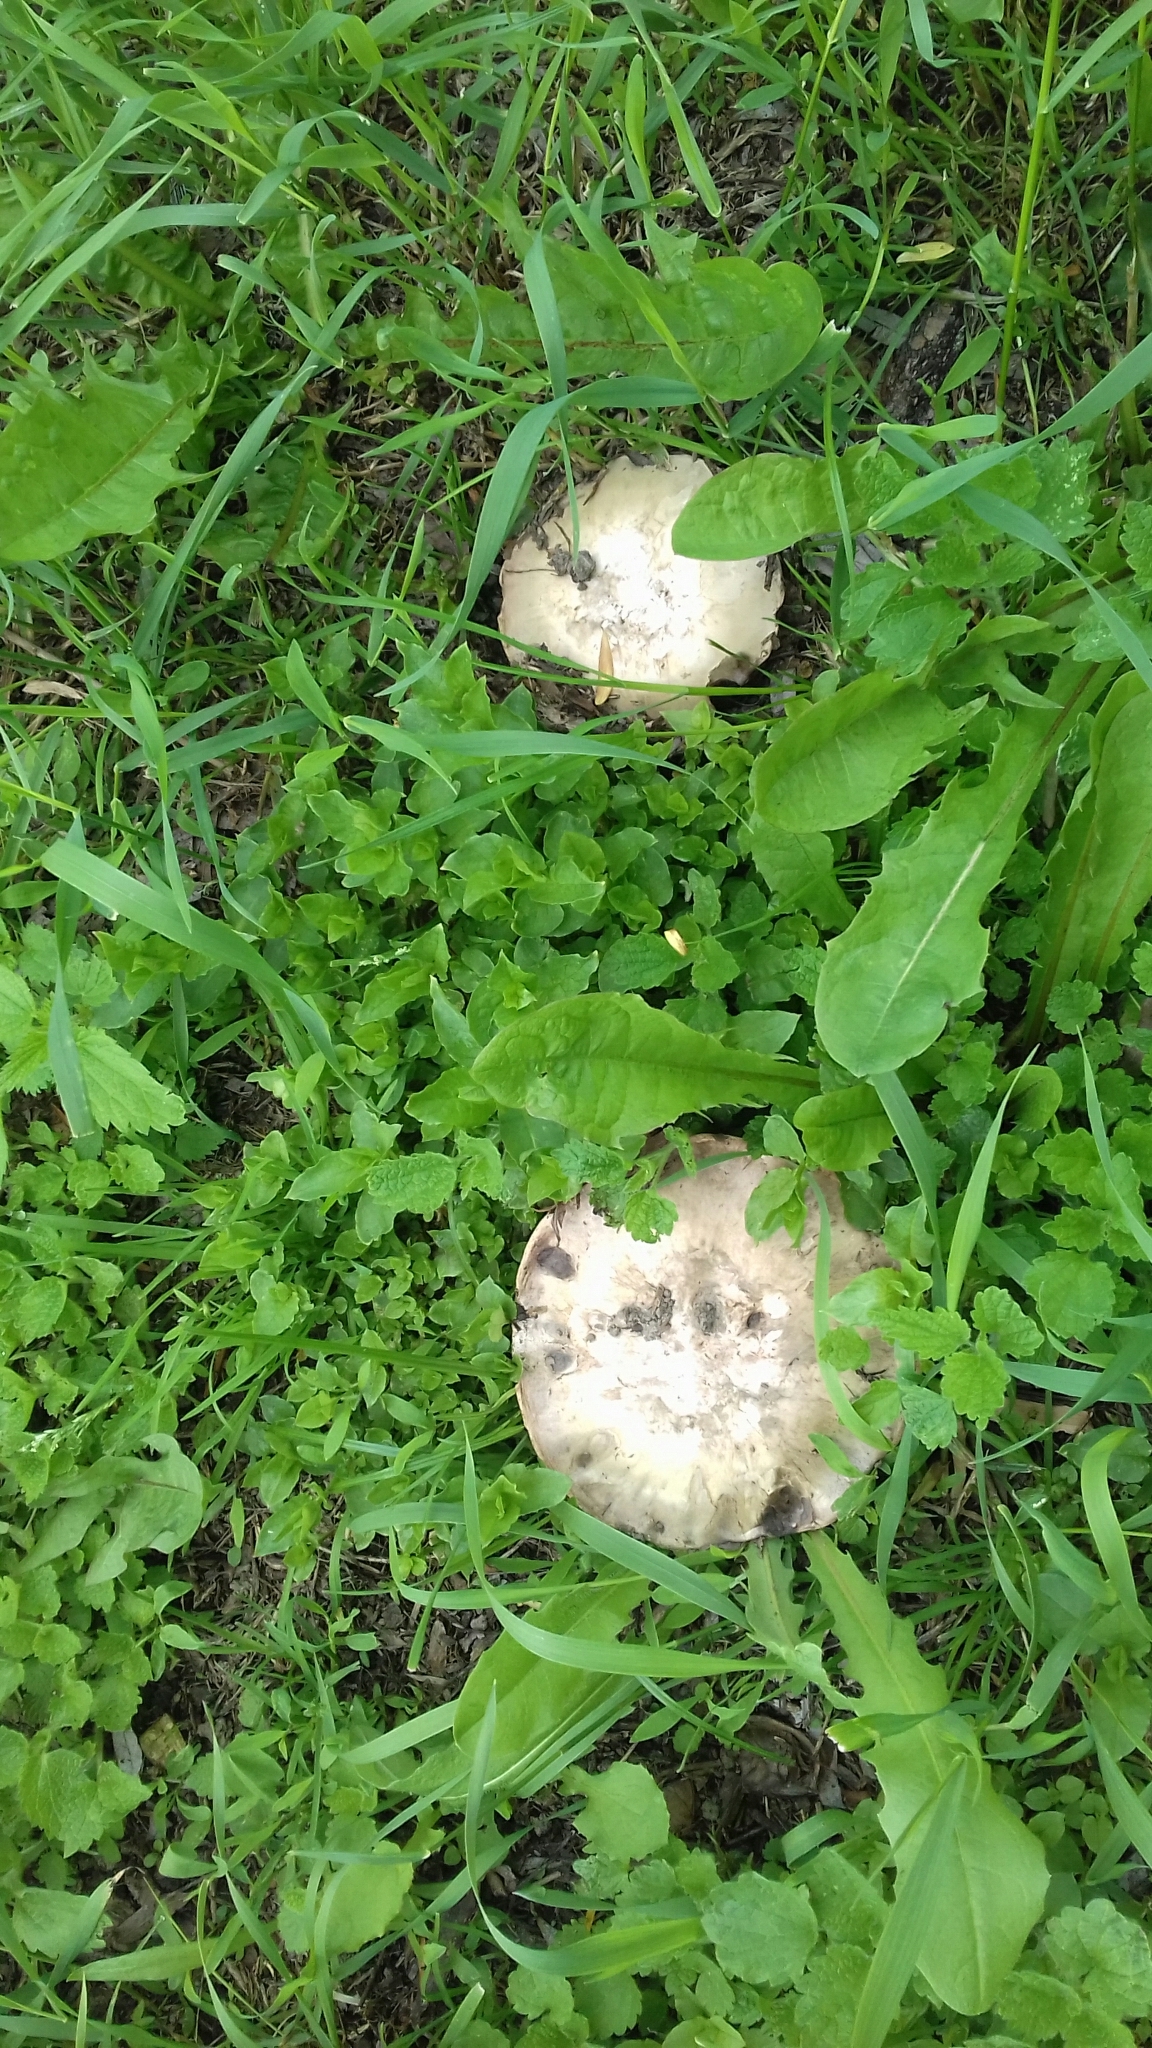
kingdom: Fungi
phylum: Basidiomycota
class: Agaricomycetes
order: Agaricales
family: Agaricaceae
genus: Agaricus
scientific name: Agaricus bitorquis
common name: Pavement mushroom
